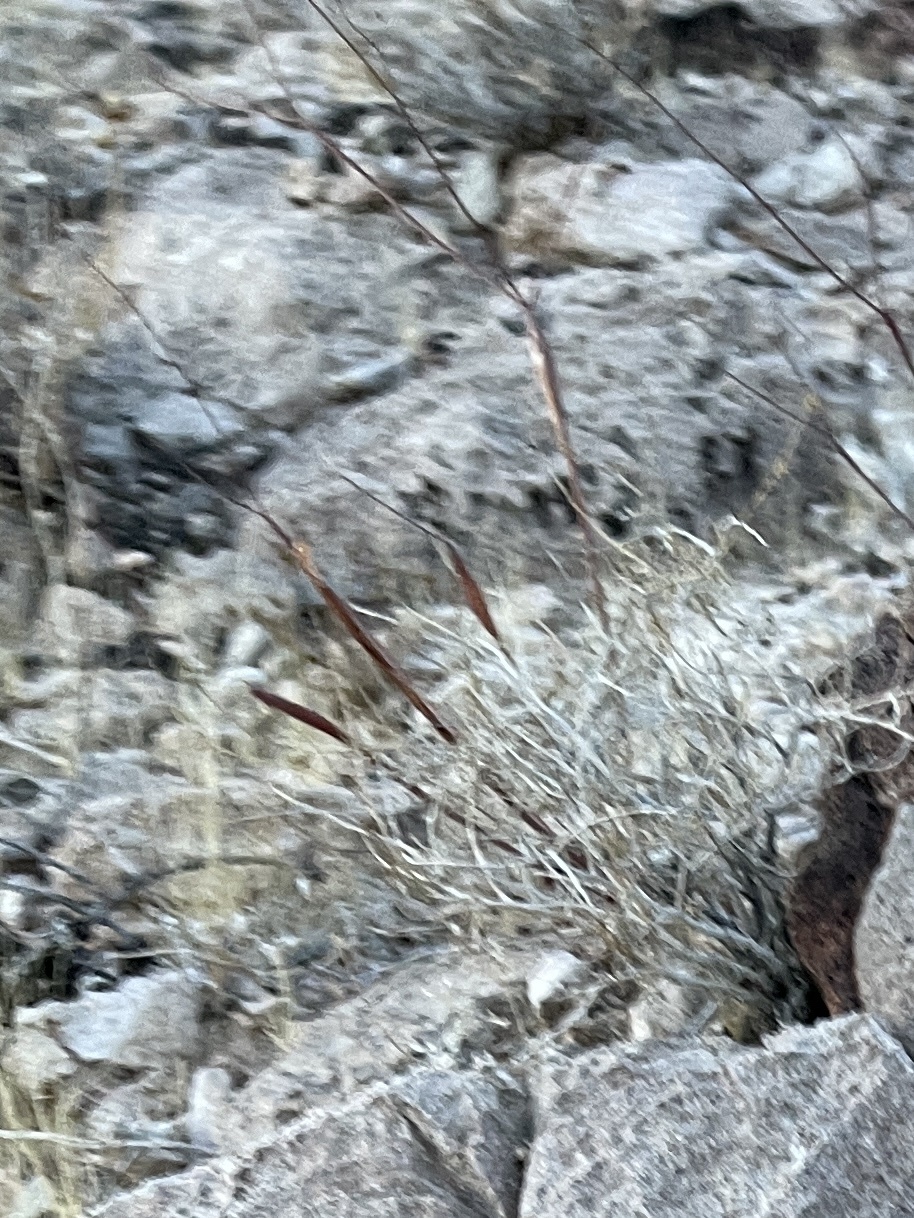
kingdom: Plantae
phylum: Tracheophyta
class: Magnoliopsida
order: Caryophyllales
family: Polygonaceae
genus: Eriogonum
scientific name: Eriogonum inflatum
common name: Desert trumpet
